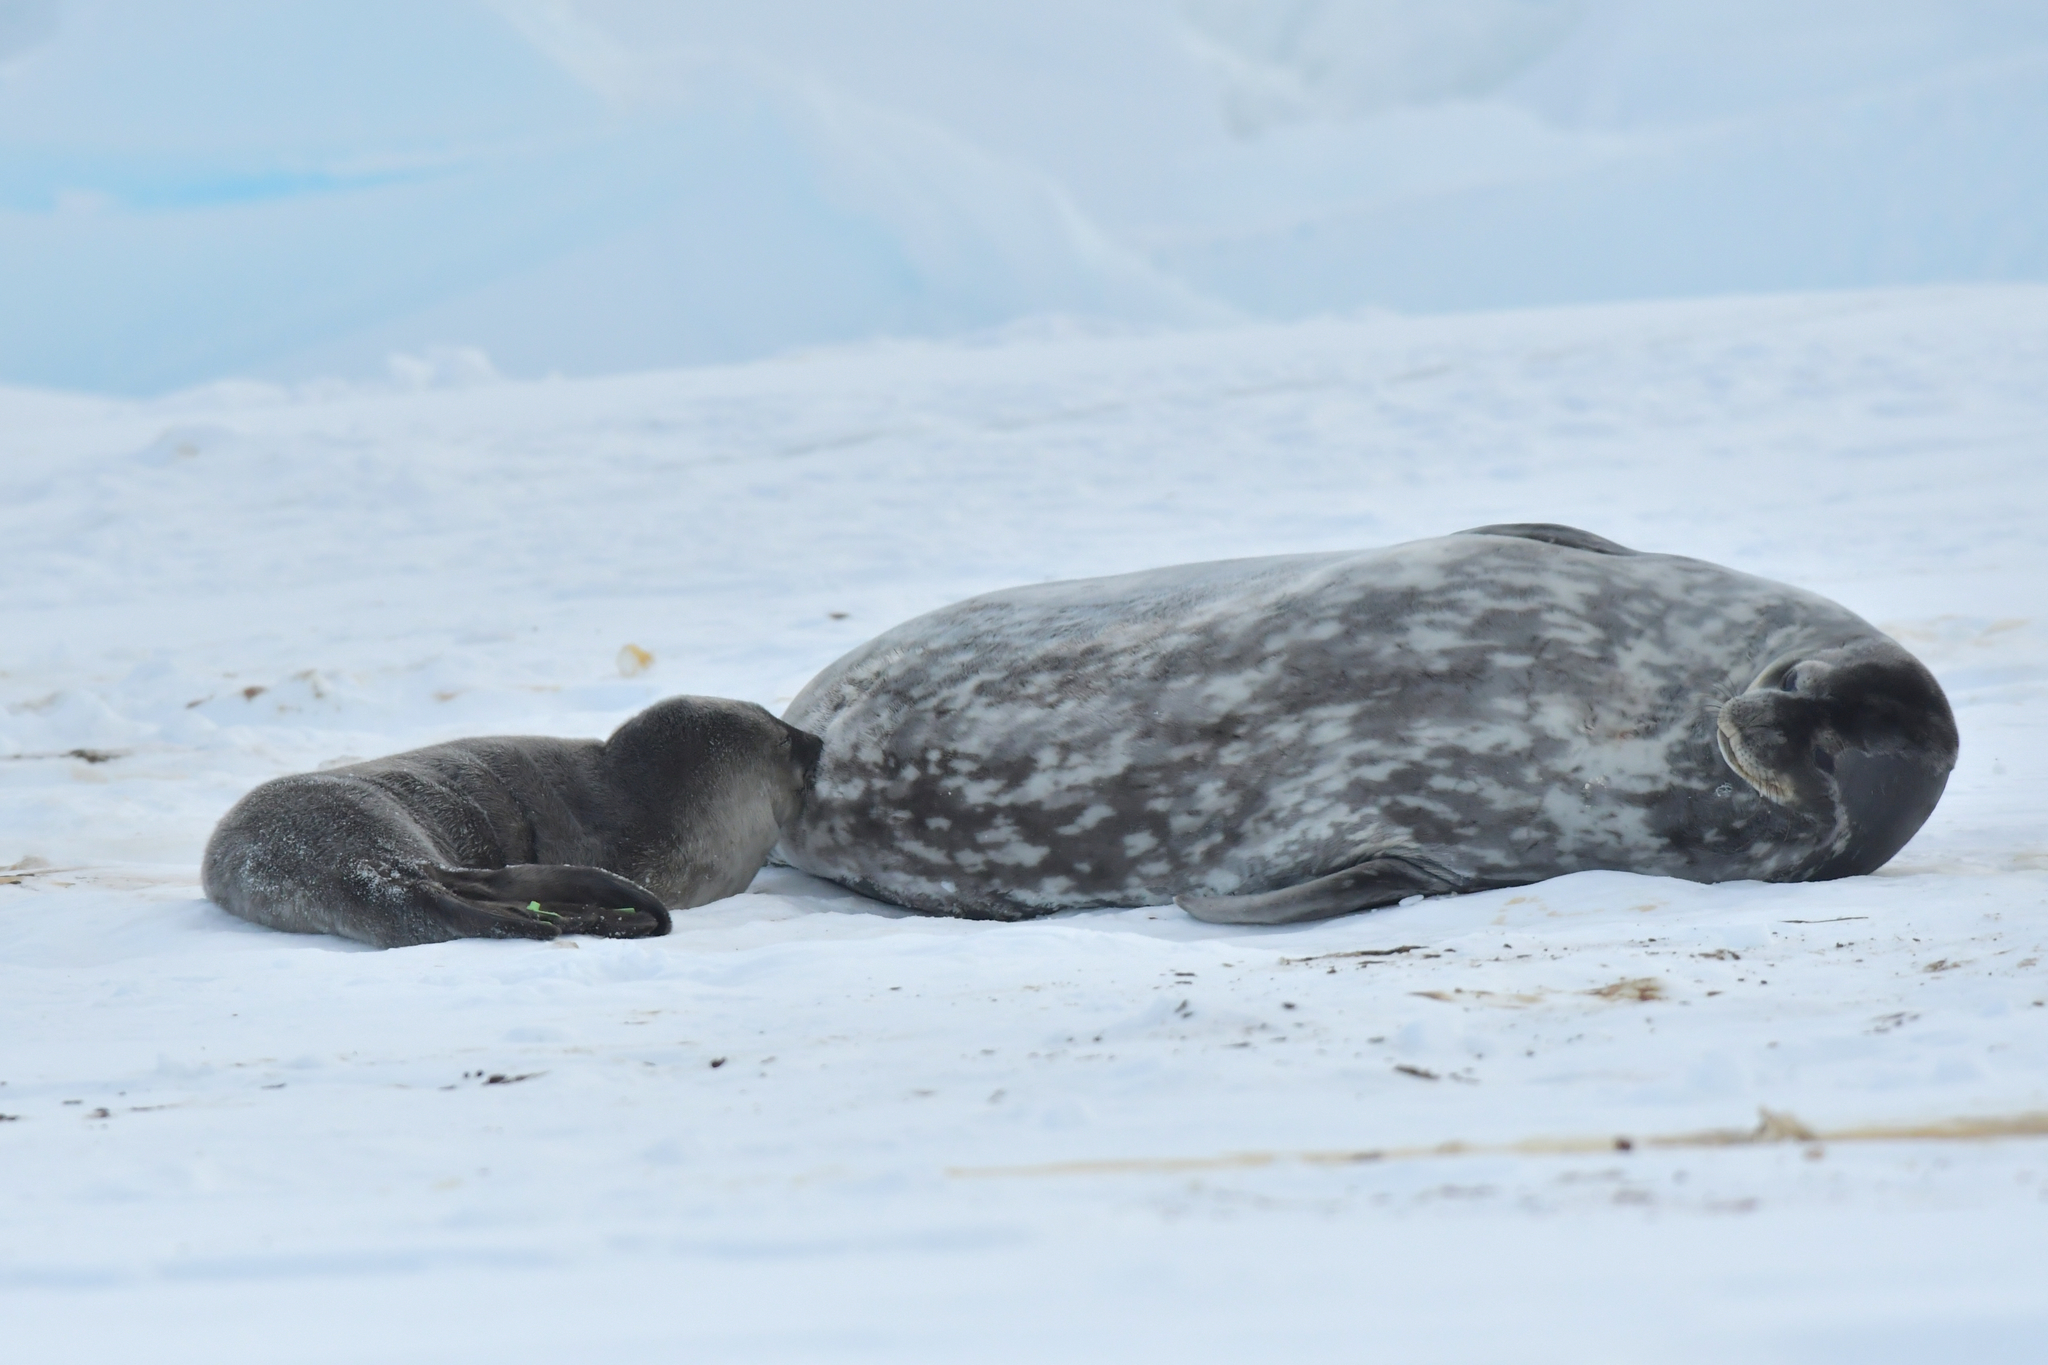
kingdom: Animalia
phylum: Chordata
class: Mammalia
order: Carnivora
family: Phocidae
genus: Leptonychotes
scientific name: Leptonychotes weddellii
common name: Weddell seal
